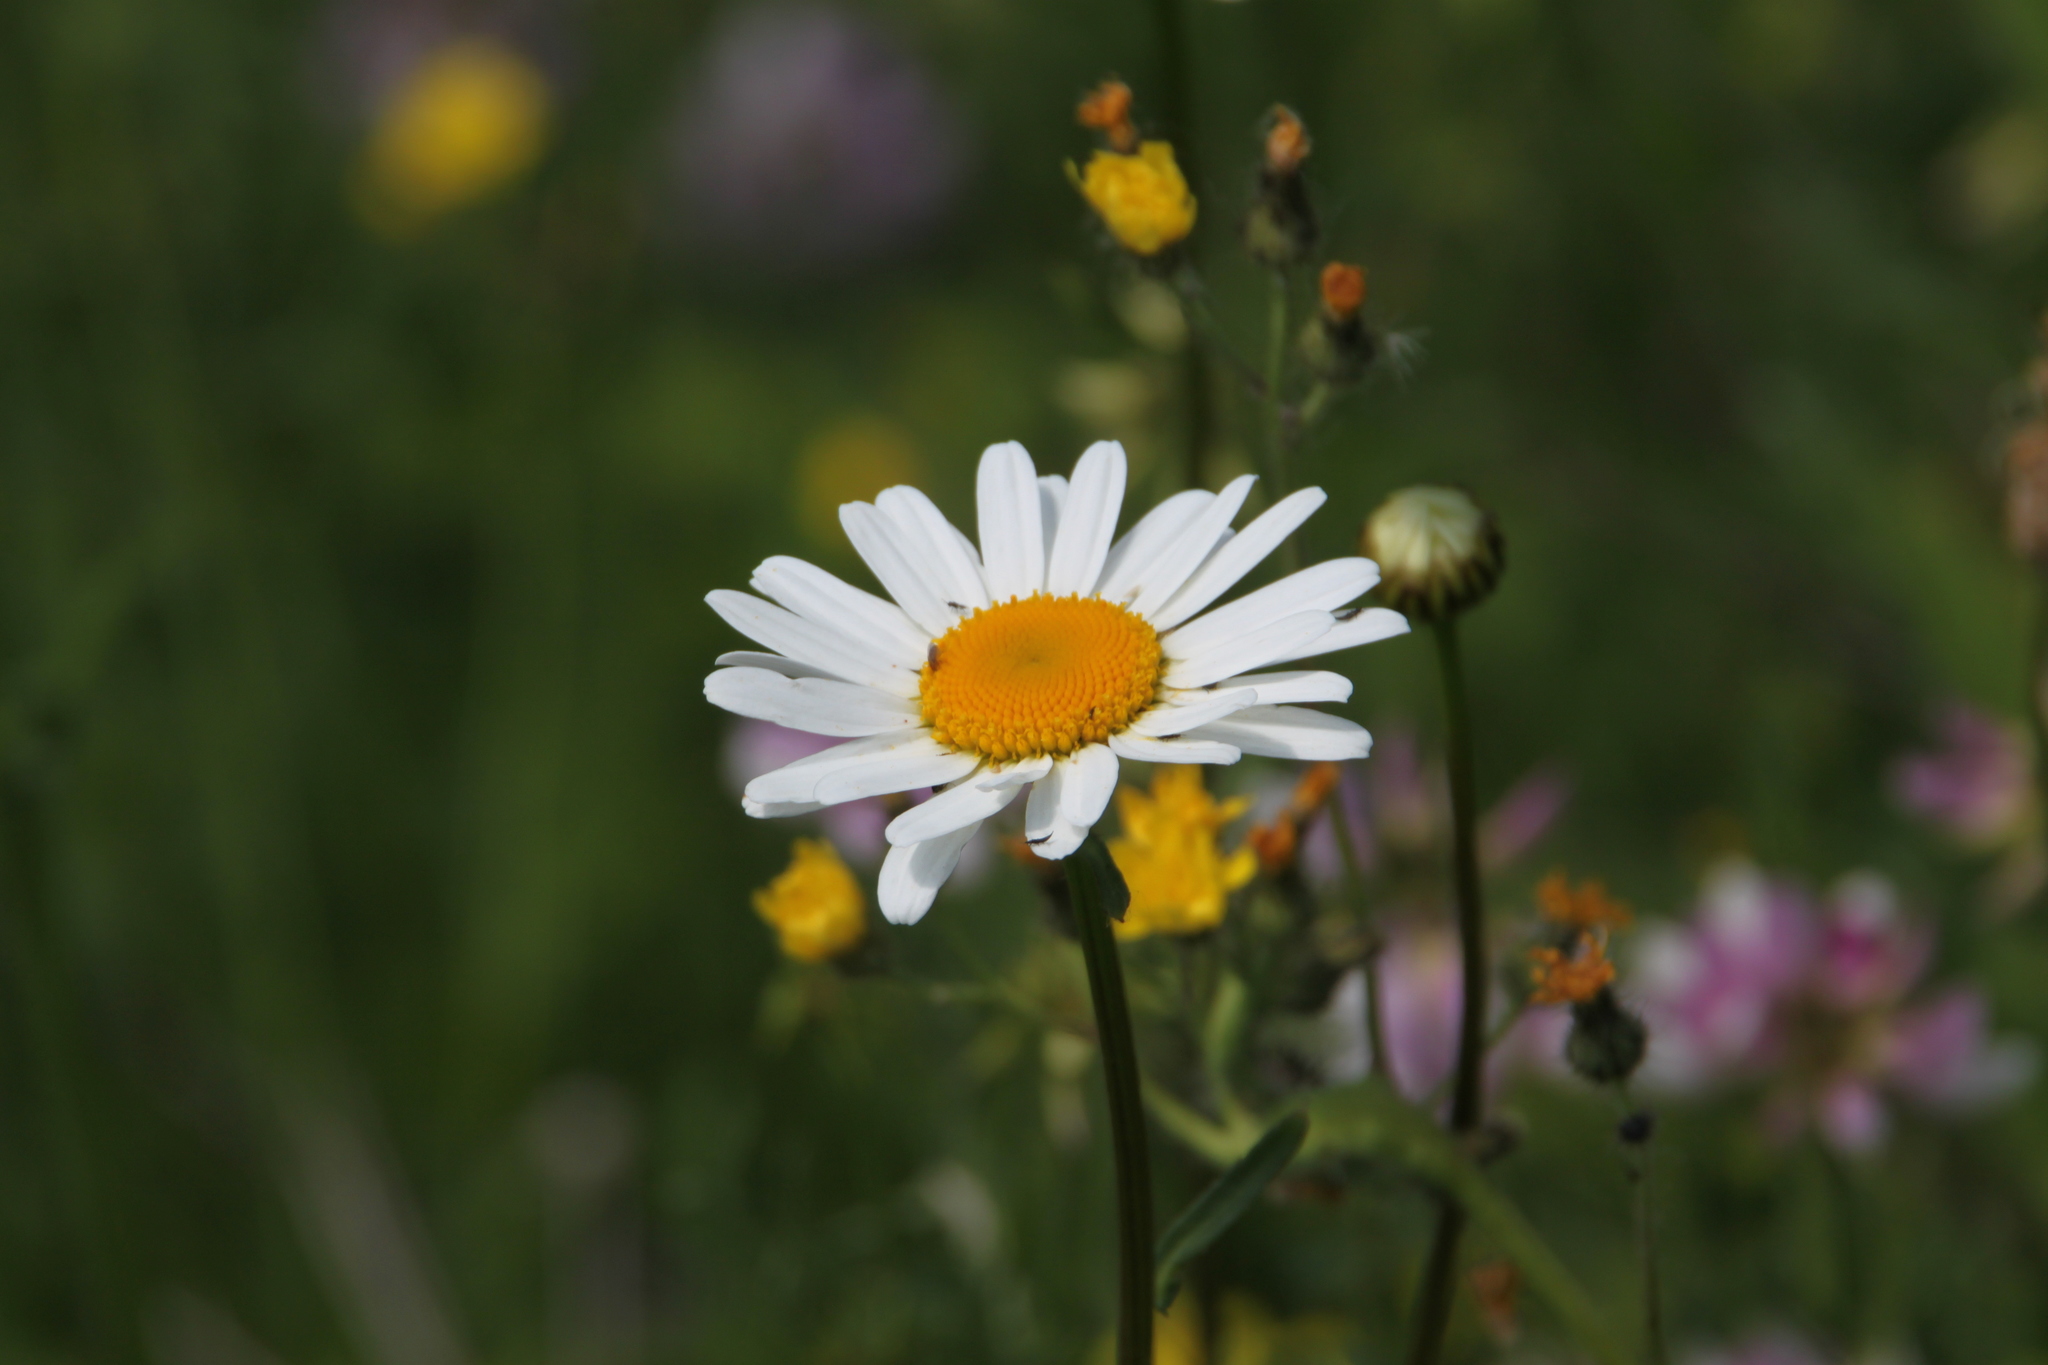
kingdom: Plantae
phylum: Tracheophyta
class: Magnoliopsida
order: Asterales
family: Asteraceae
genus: Leucanthemum
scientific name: Leucanthemum vulgare
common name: Oxeye daisy
